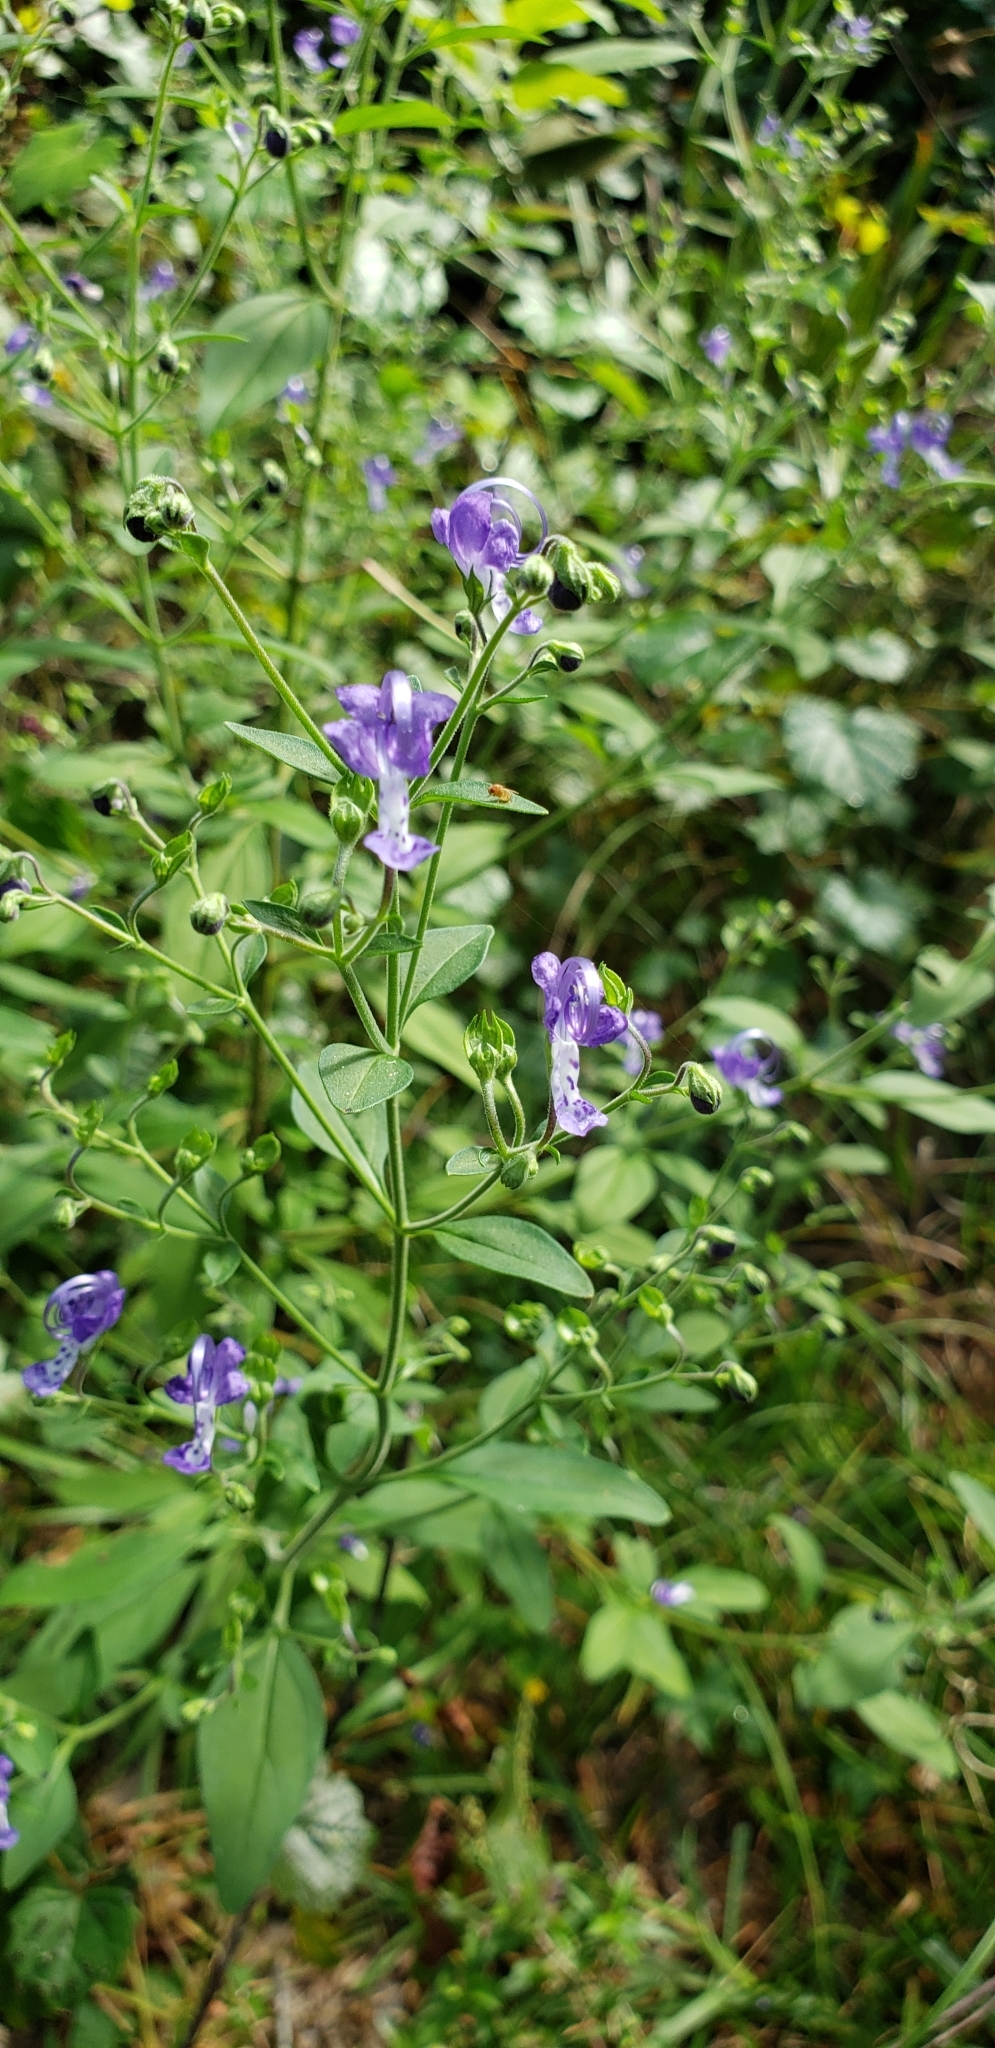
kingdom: Plantae
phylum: Tracheophyta
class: Magnoliopsida
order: Lamiales
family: Lamiaceae
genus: Trichostema
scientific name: Trichostema fruticosum
